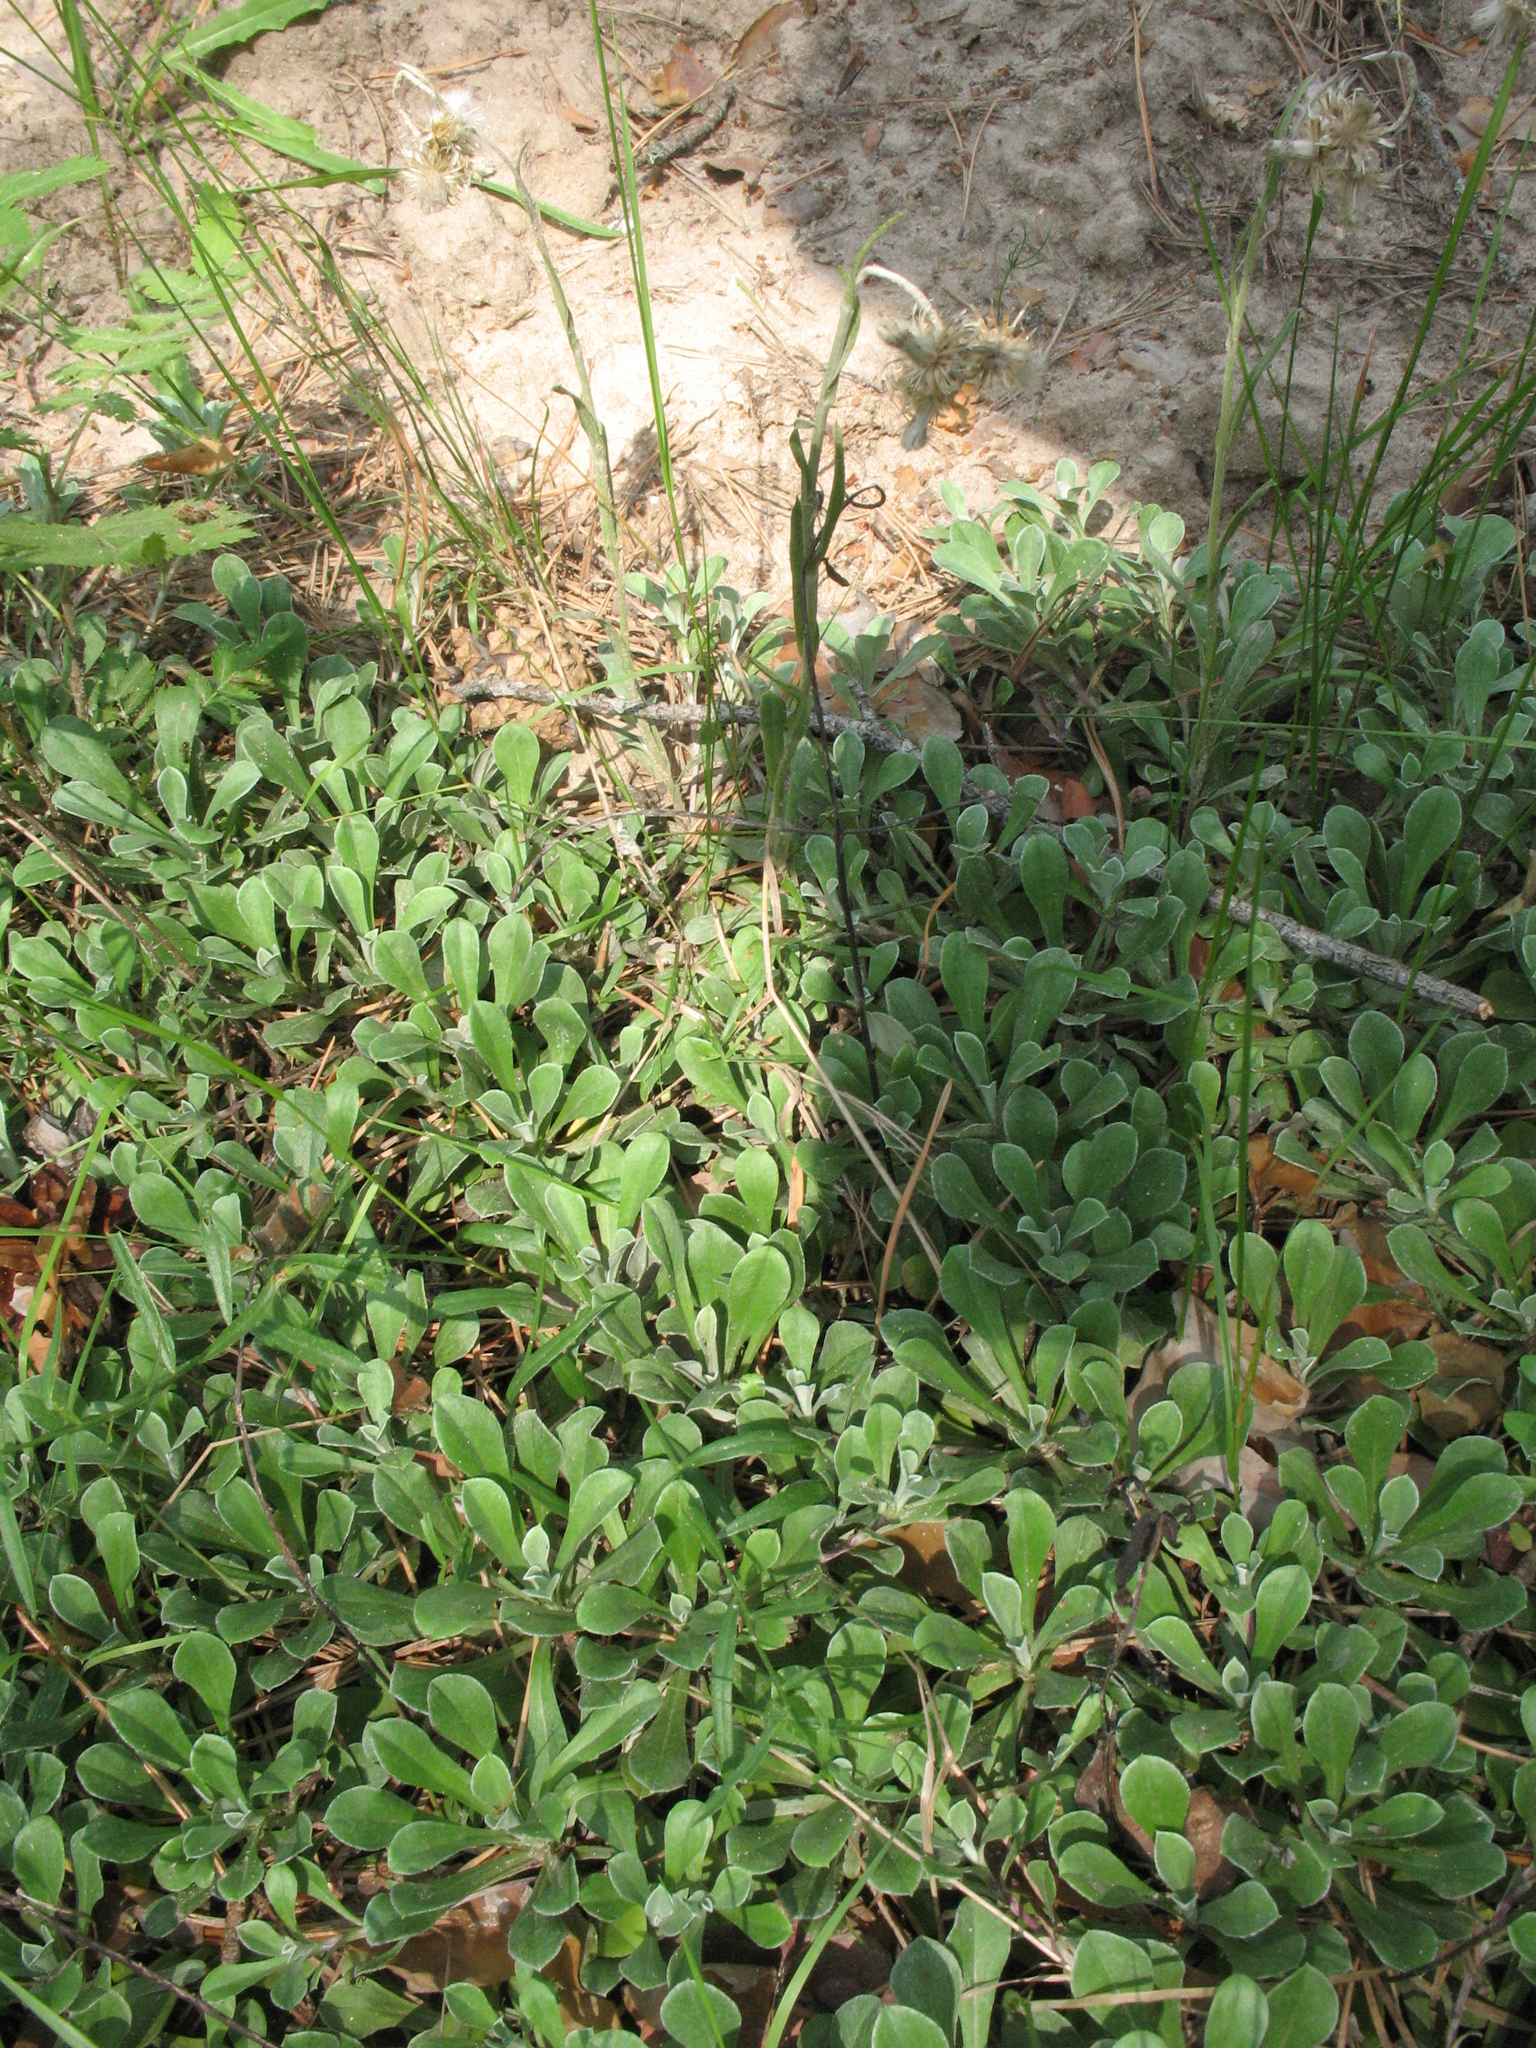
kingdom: Plantae
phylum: Tracheophyta
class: Magnoliopsida
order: Asterales
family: Asteraceae
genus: Antennaria
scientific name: Antennaria dioica
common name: Mountain everlasting
